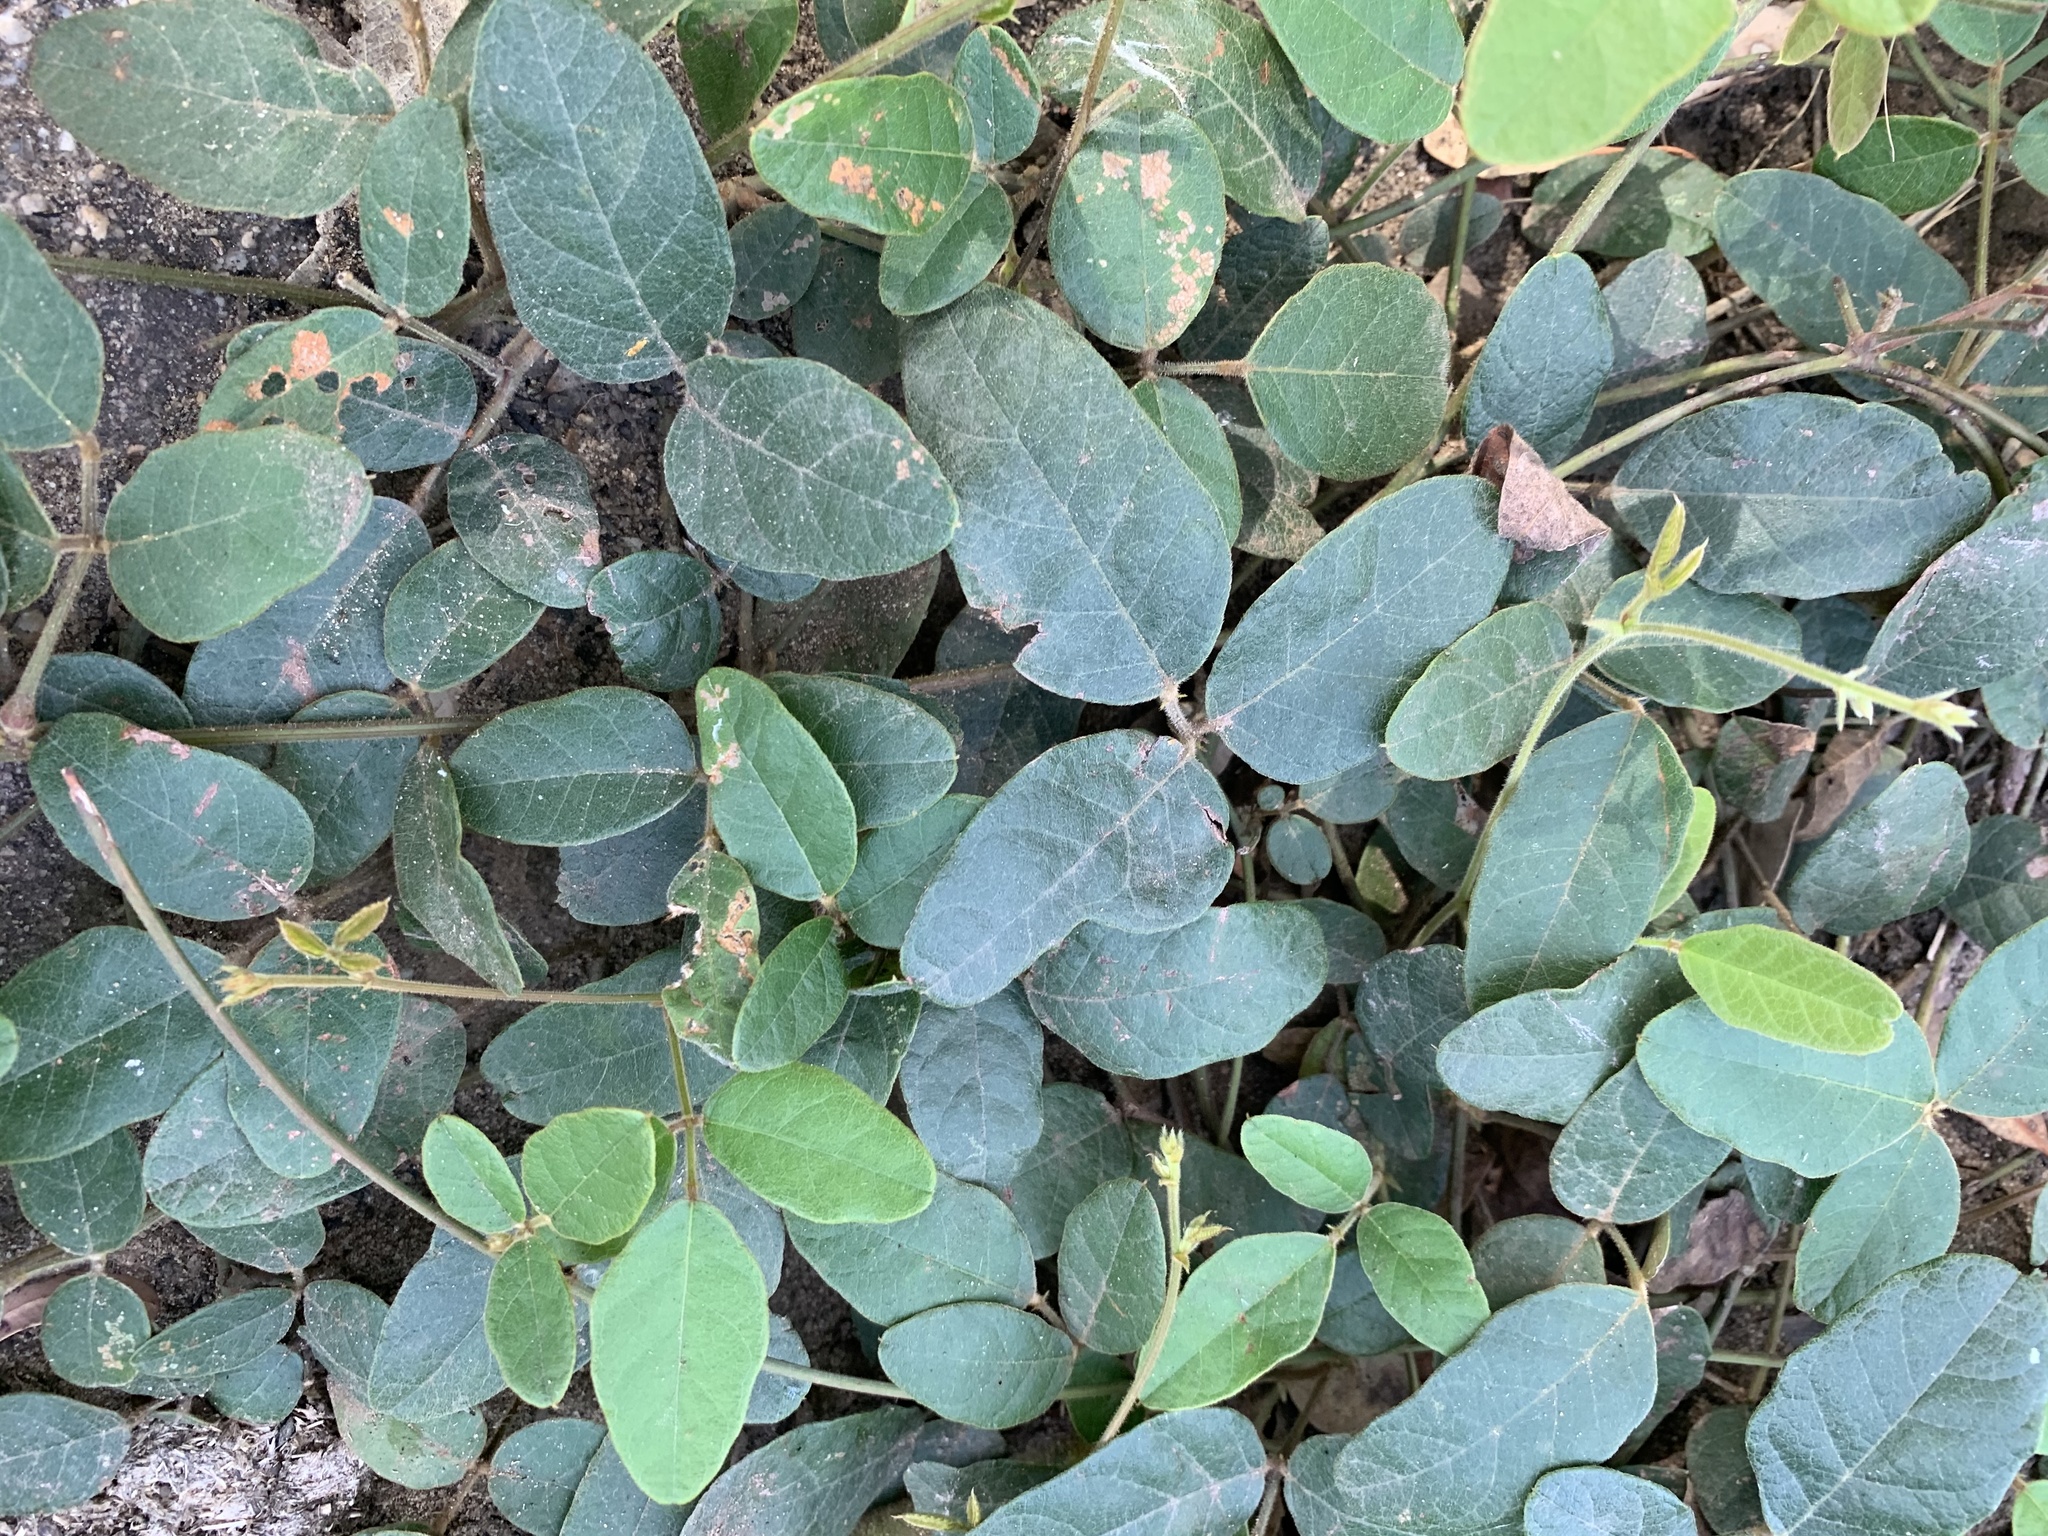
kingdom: Plantae
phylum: Tracheophyta
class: Magnoliopsida
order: Fabales
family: Fabaceae
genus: Kennedia
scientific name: Kennedia rubicunda
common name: Red kennedy-pea
